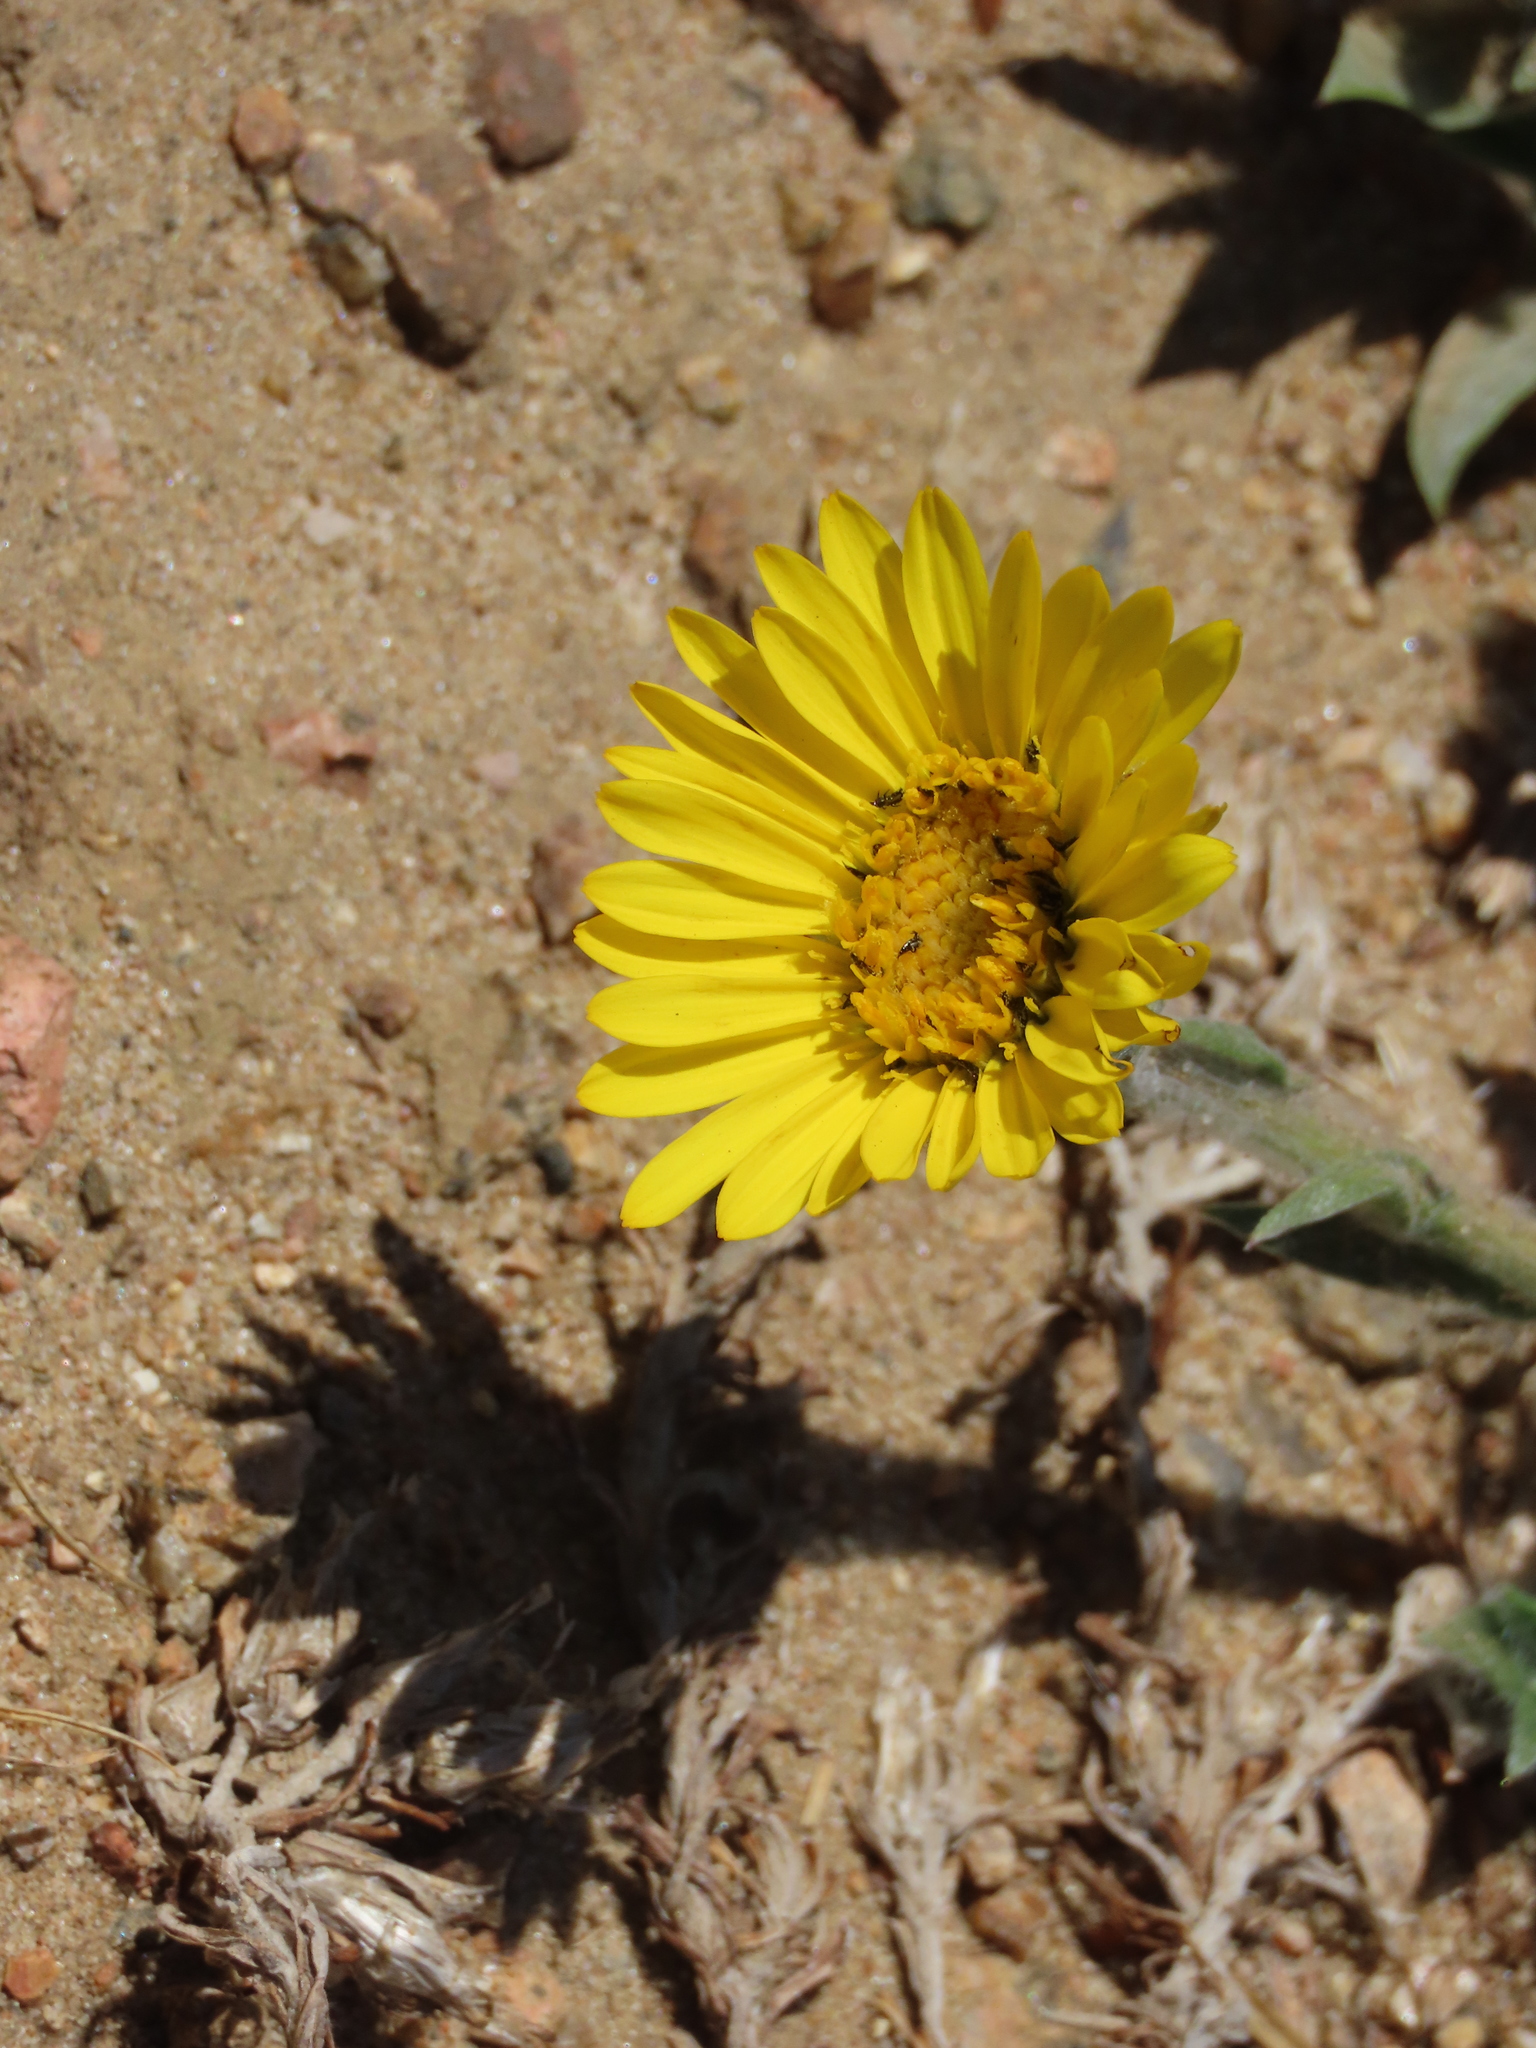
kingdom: Plantae
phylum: Tracheophyta
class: Magnoliopsida
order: Asterales
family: Asteraceae
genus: Noticastrum
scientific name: Noticastrum acuminatum
